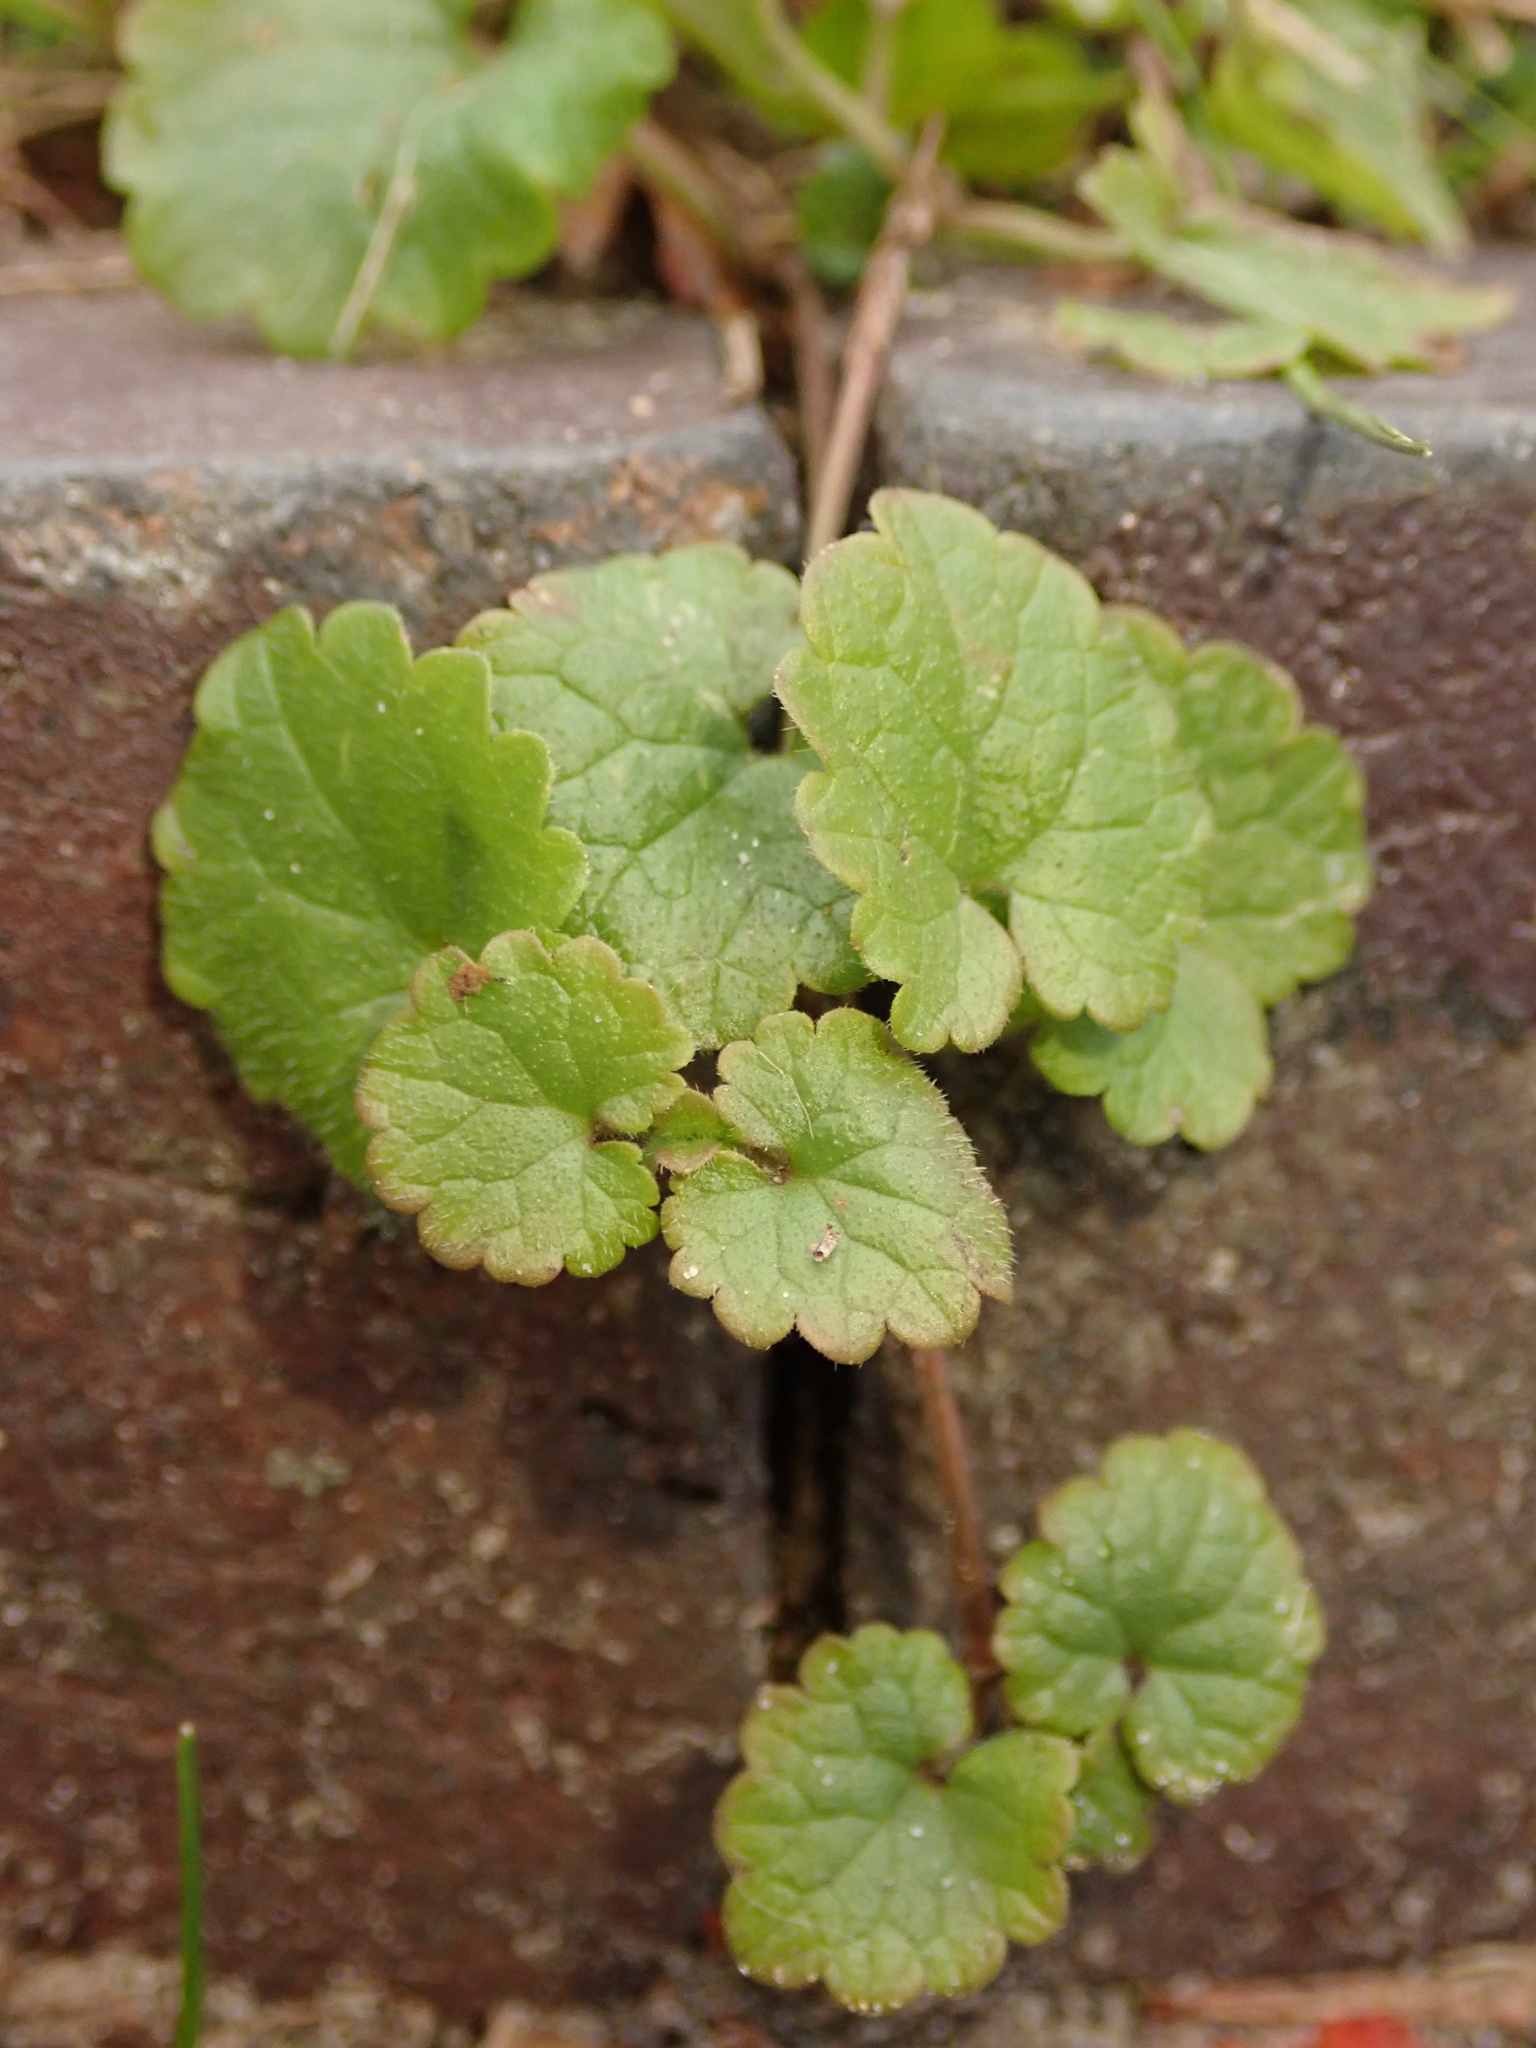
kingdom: Plantae
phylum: Tracheophyta
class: Magnoliopsida
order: Lamiales
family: Lamiaceae
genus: Glechoma
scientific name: Glechoma hederacea
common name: Ground ivy
